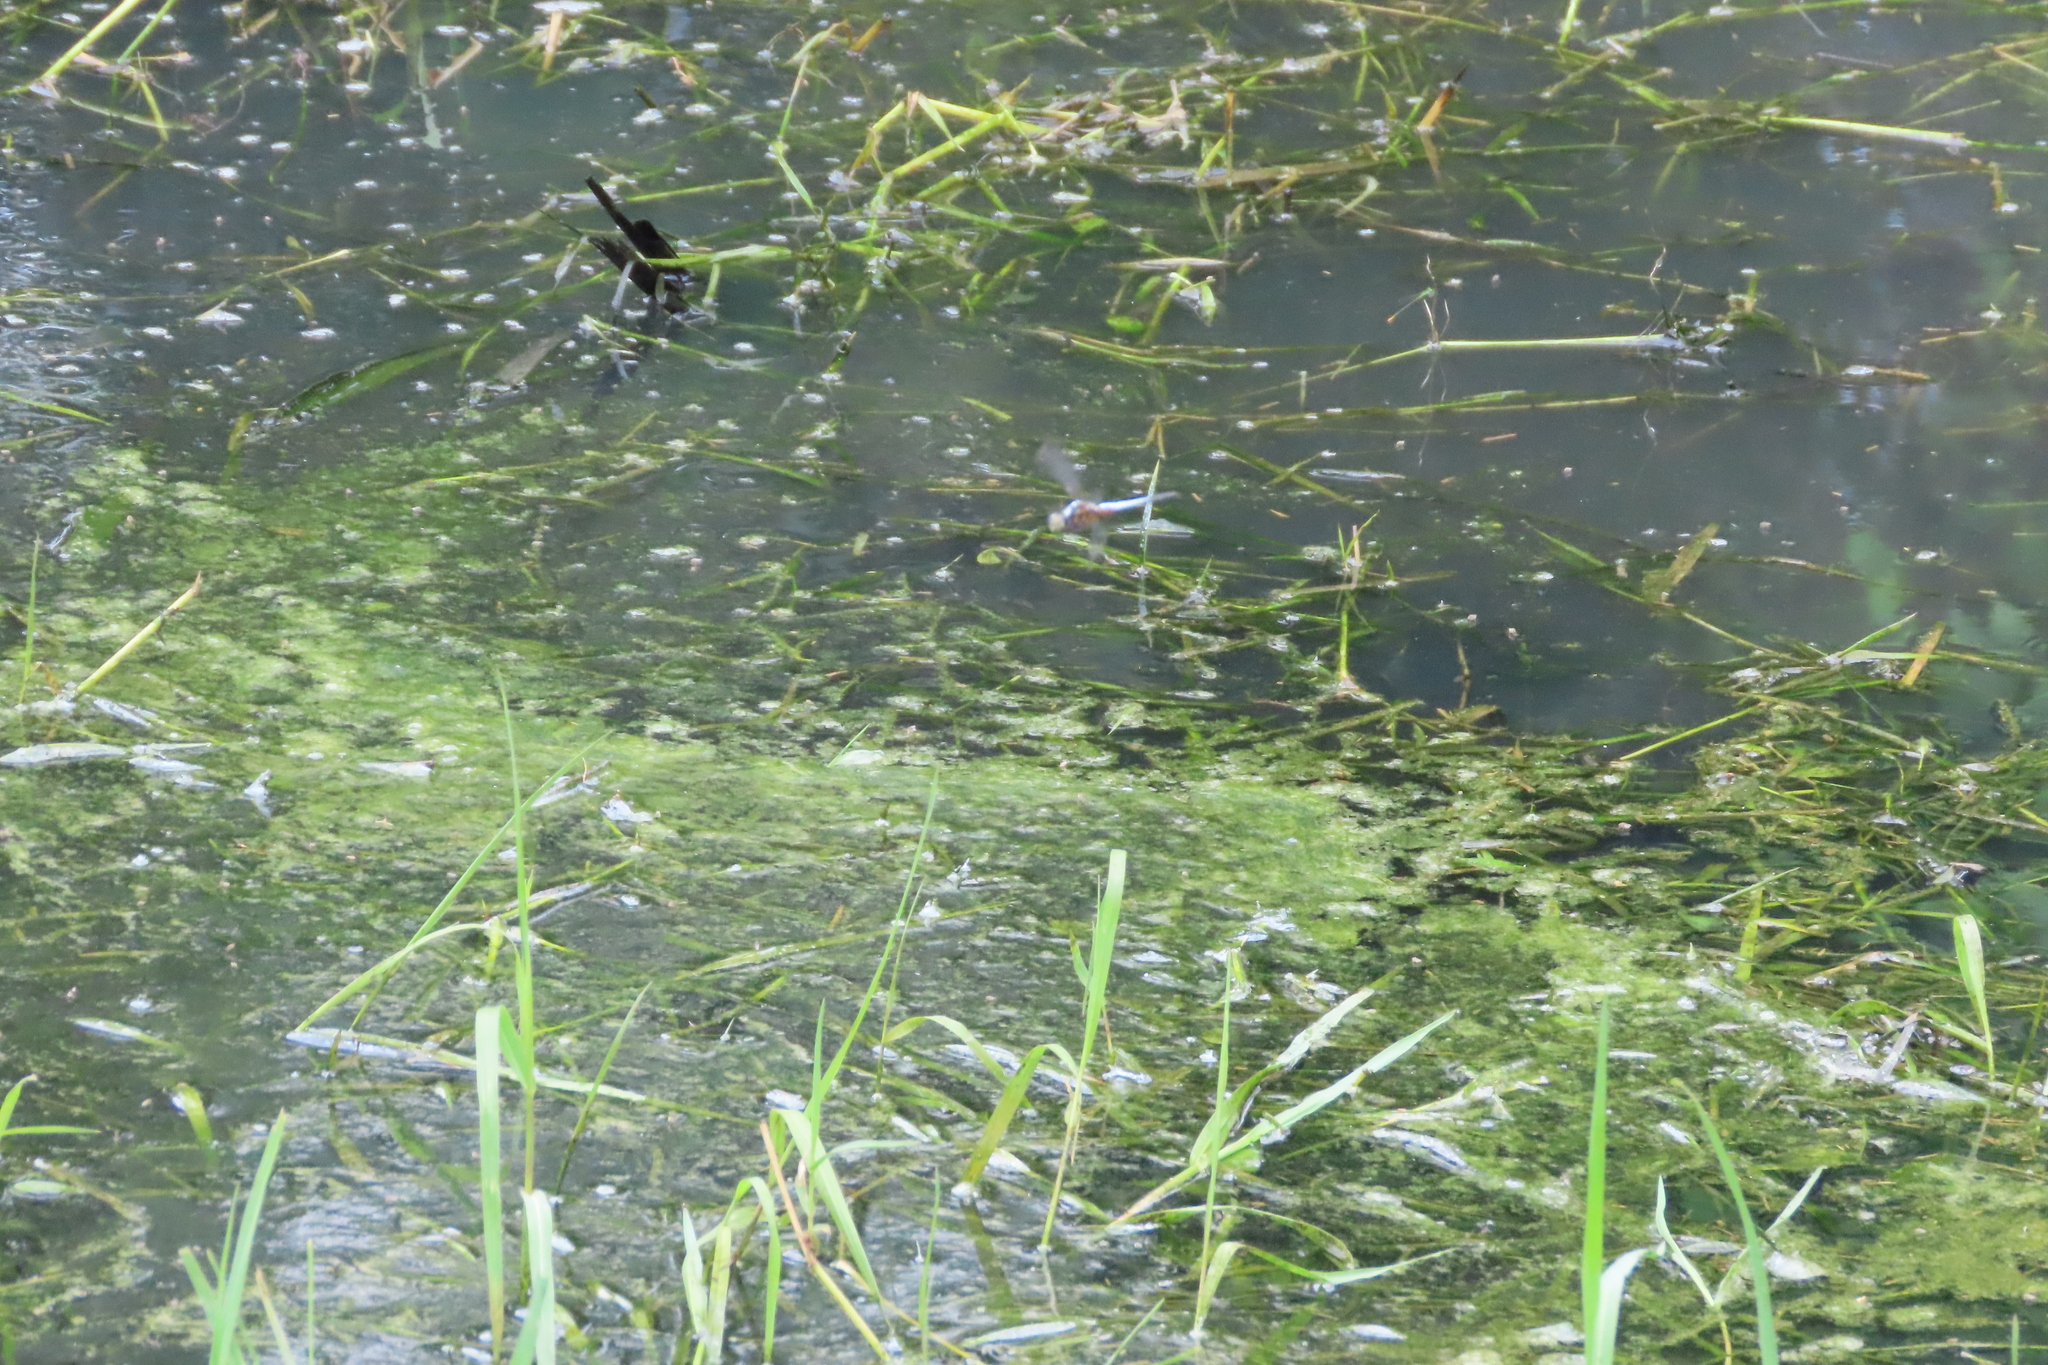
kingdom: Animalia
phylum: Arthropoda
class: Insecta
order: Odonata
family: Libellulidae
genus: Brachydiplax
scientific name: Brachydiplax chalybea
